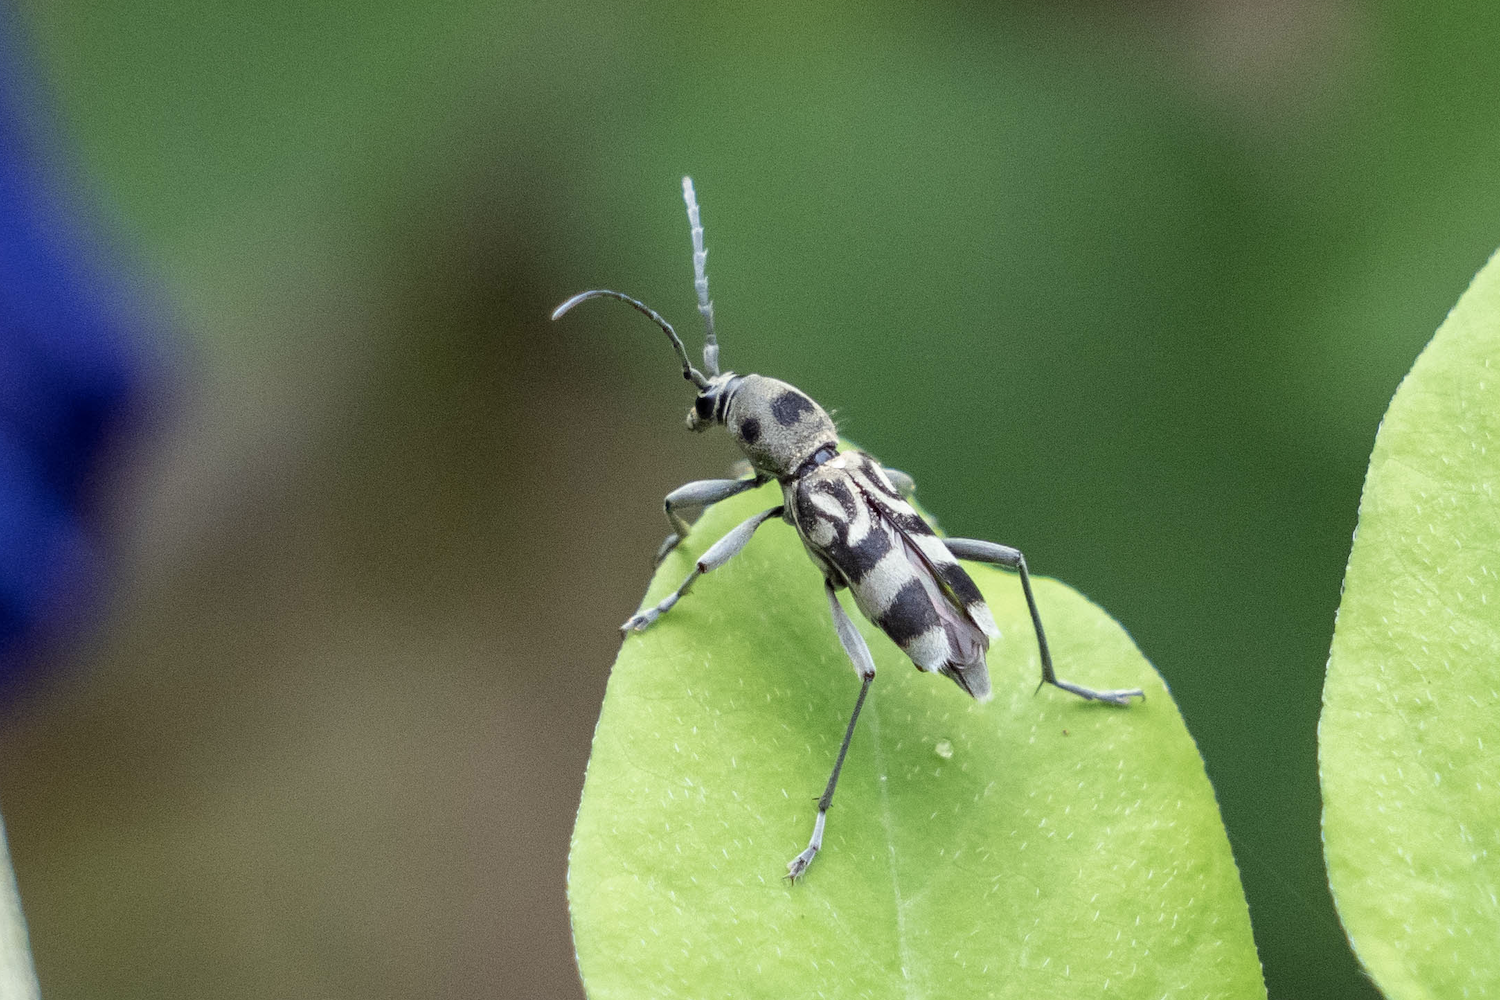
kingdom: Animalia
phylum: Arthropoda
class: Insecta
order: Coleoptera
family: Cerambycidae
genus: Chlorophorus
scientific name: Chlorophorus macaumensis
